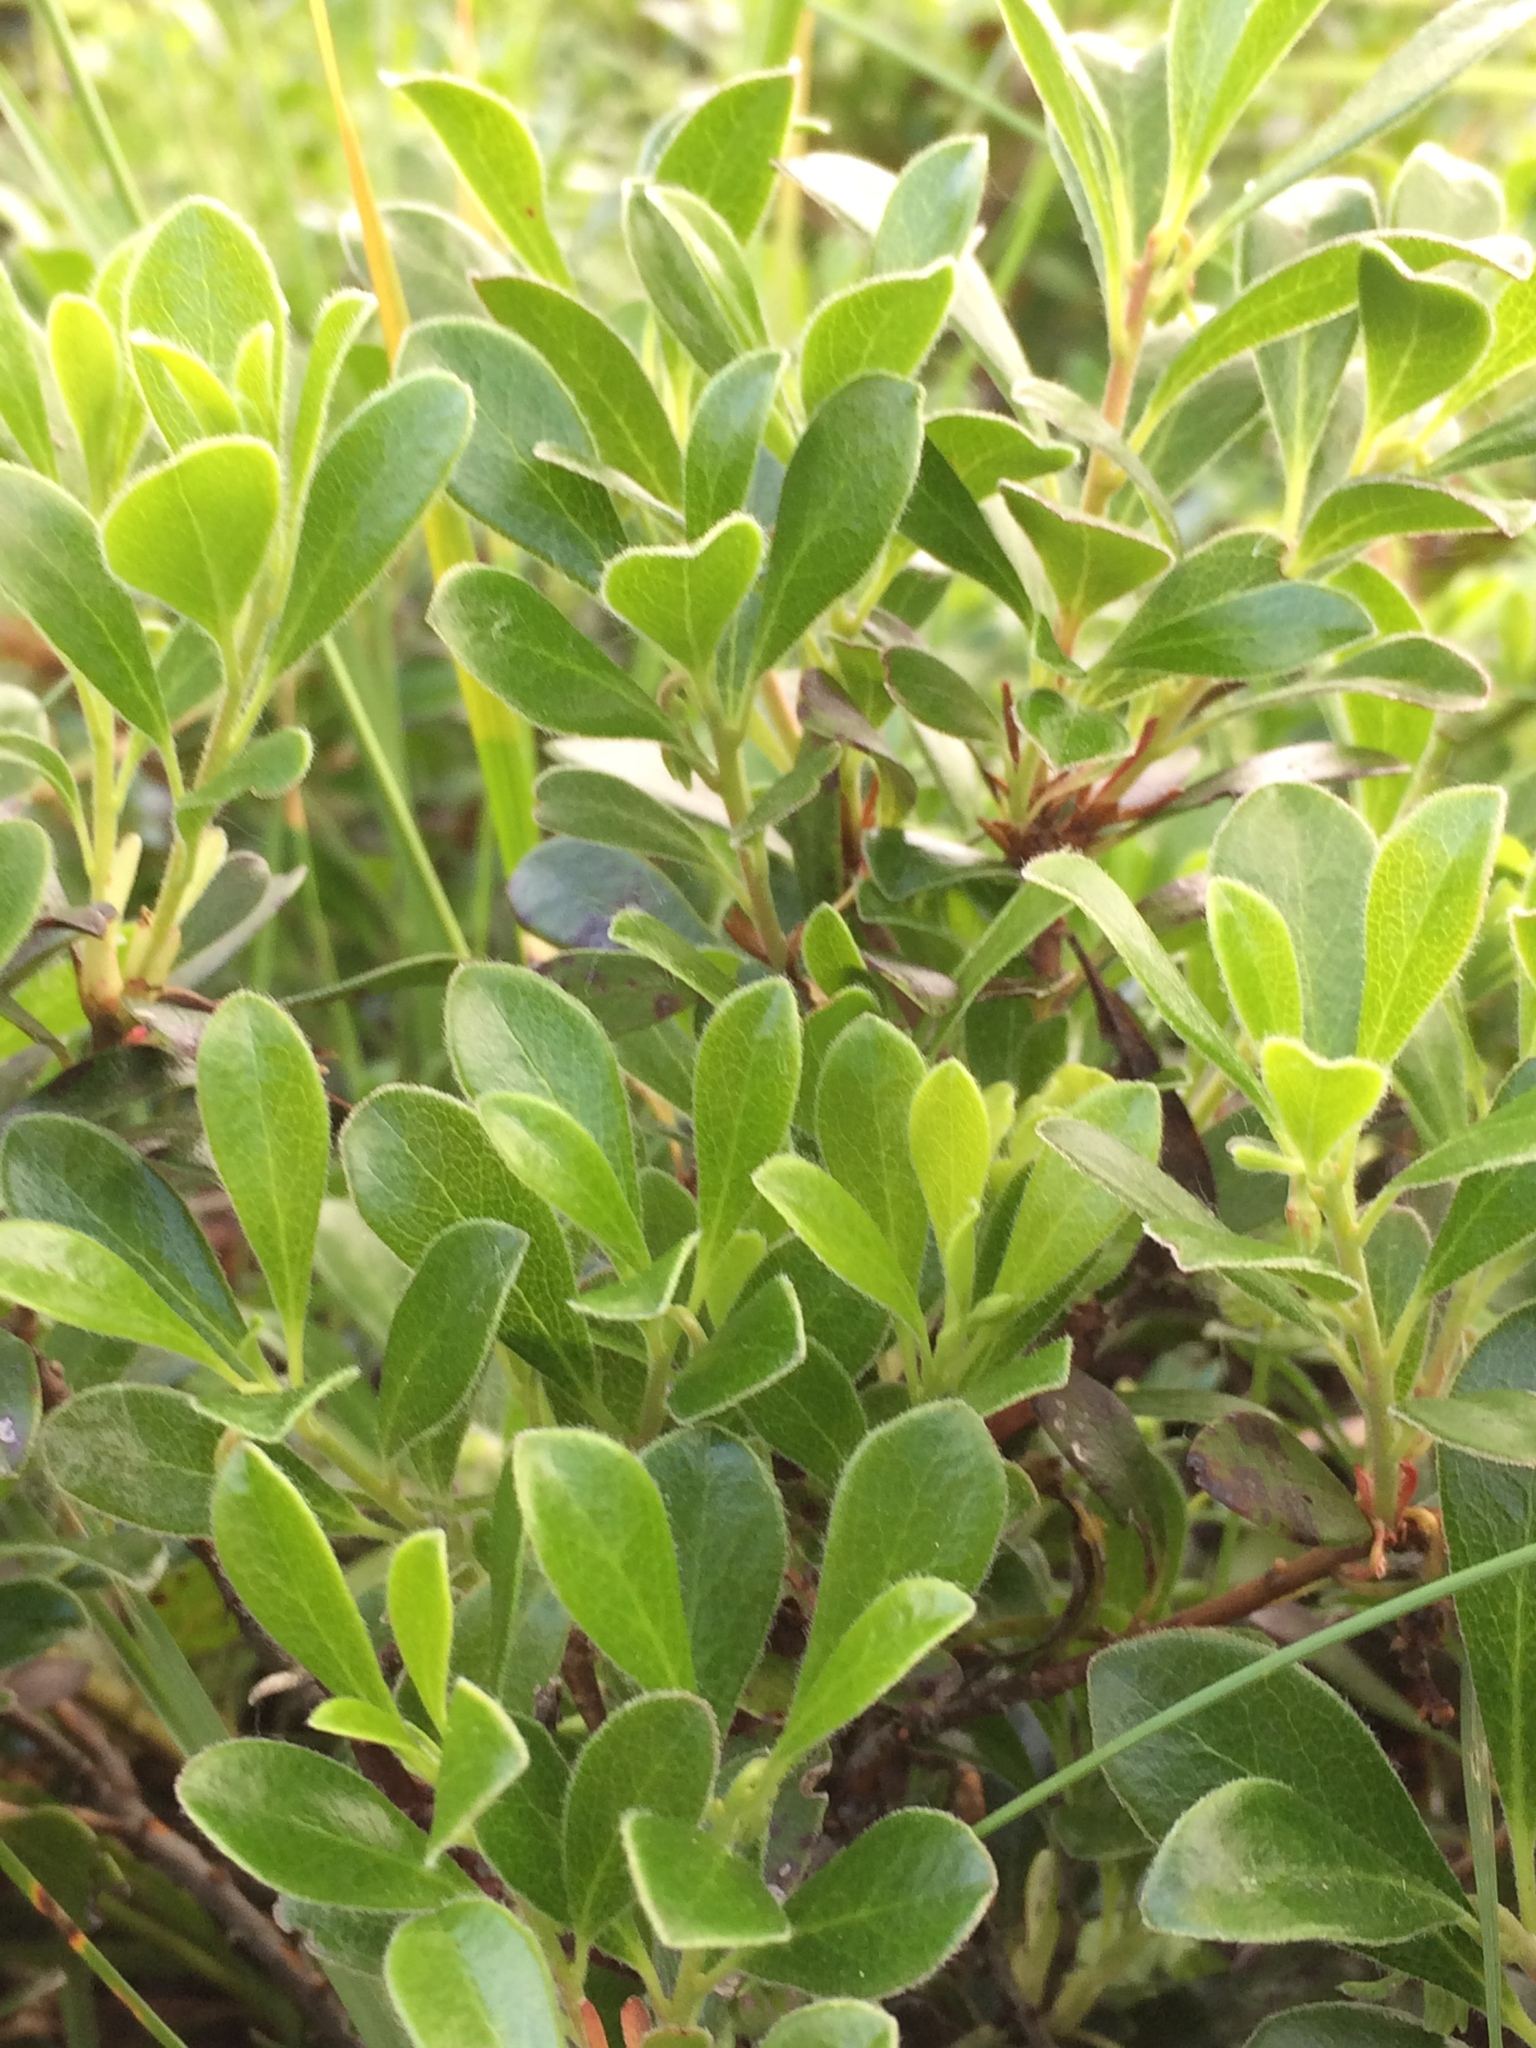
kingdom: Plantae
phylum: Tracheophyta
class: Magnoliopsida
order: Ericales
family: Ericaceae
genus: Arctostaphylos
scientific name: Arctostaphylos uva-ursi
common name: Bearberry
